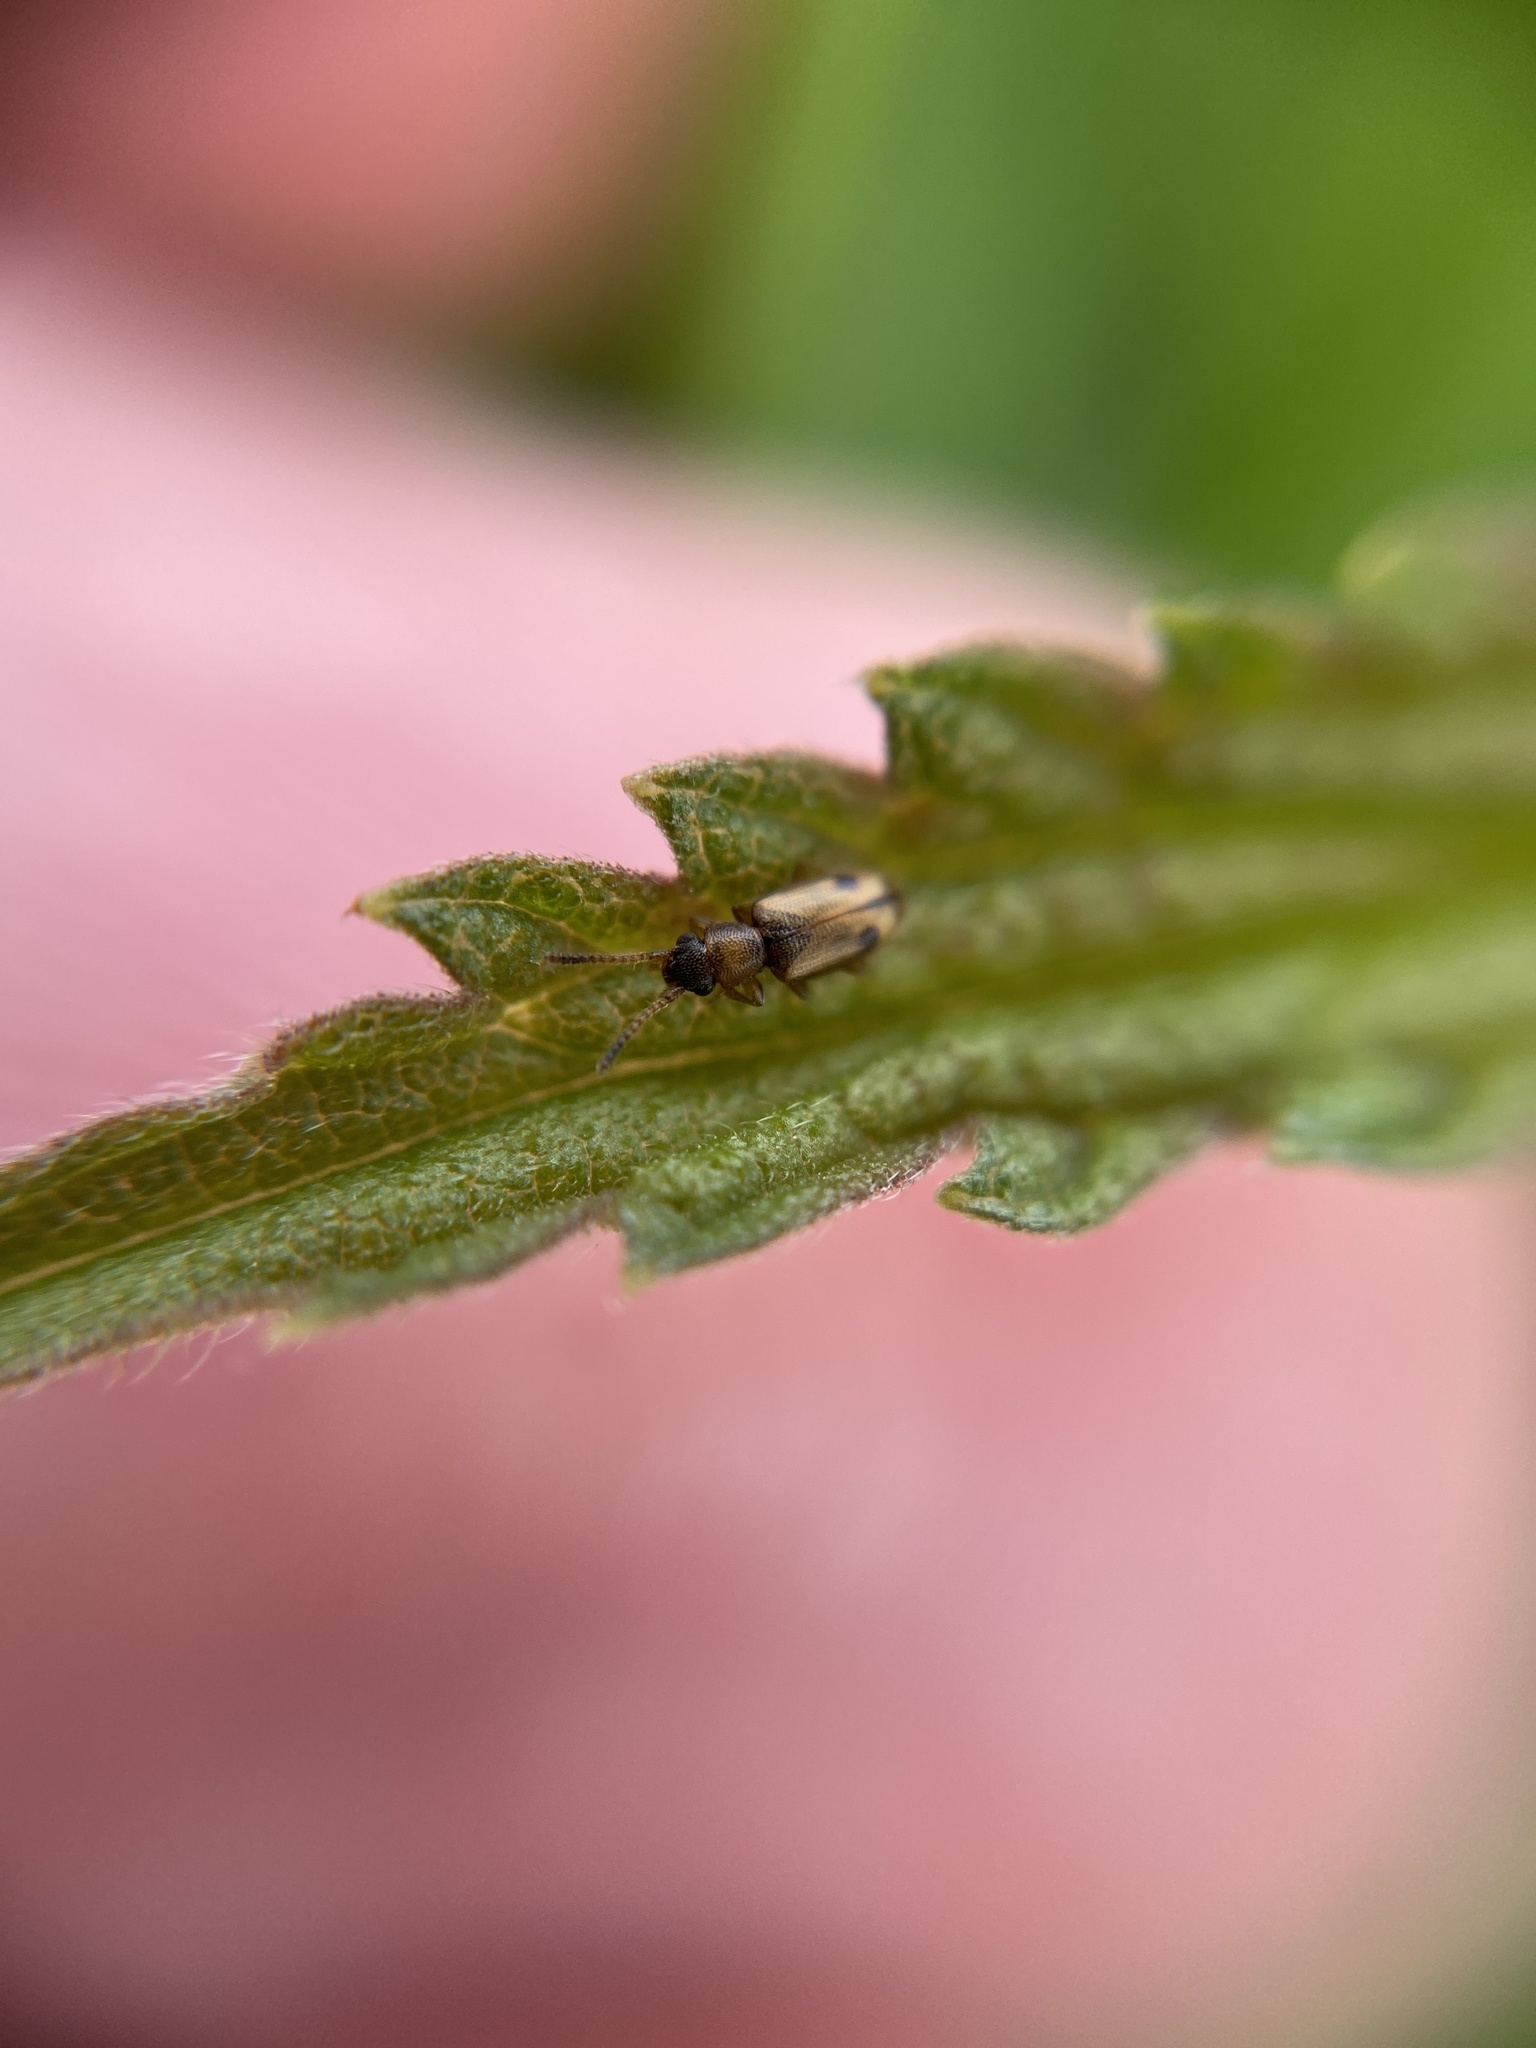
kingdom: Animalia
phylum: Arthropoda
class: Insecta
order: Coleoptera
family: Silvanidae
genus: Psammoecus
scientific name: Psammoecus bipunctatus
